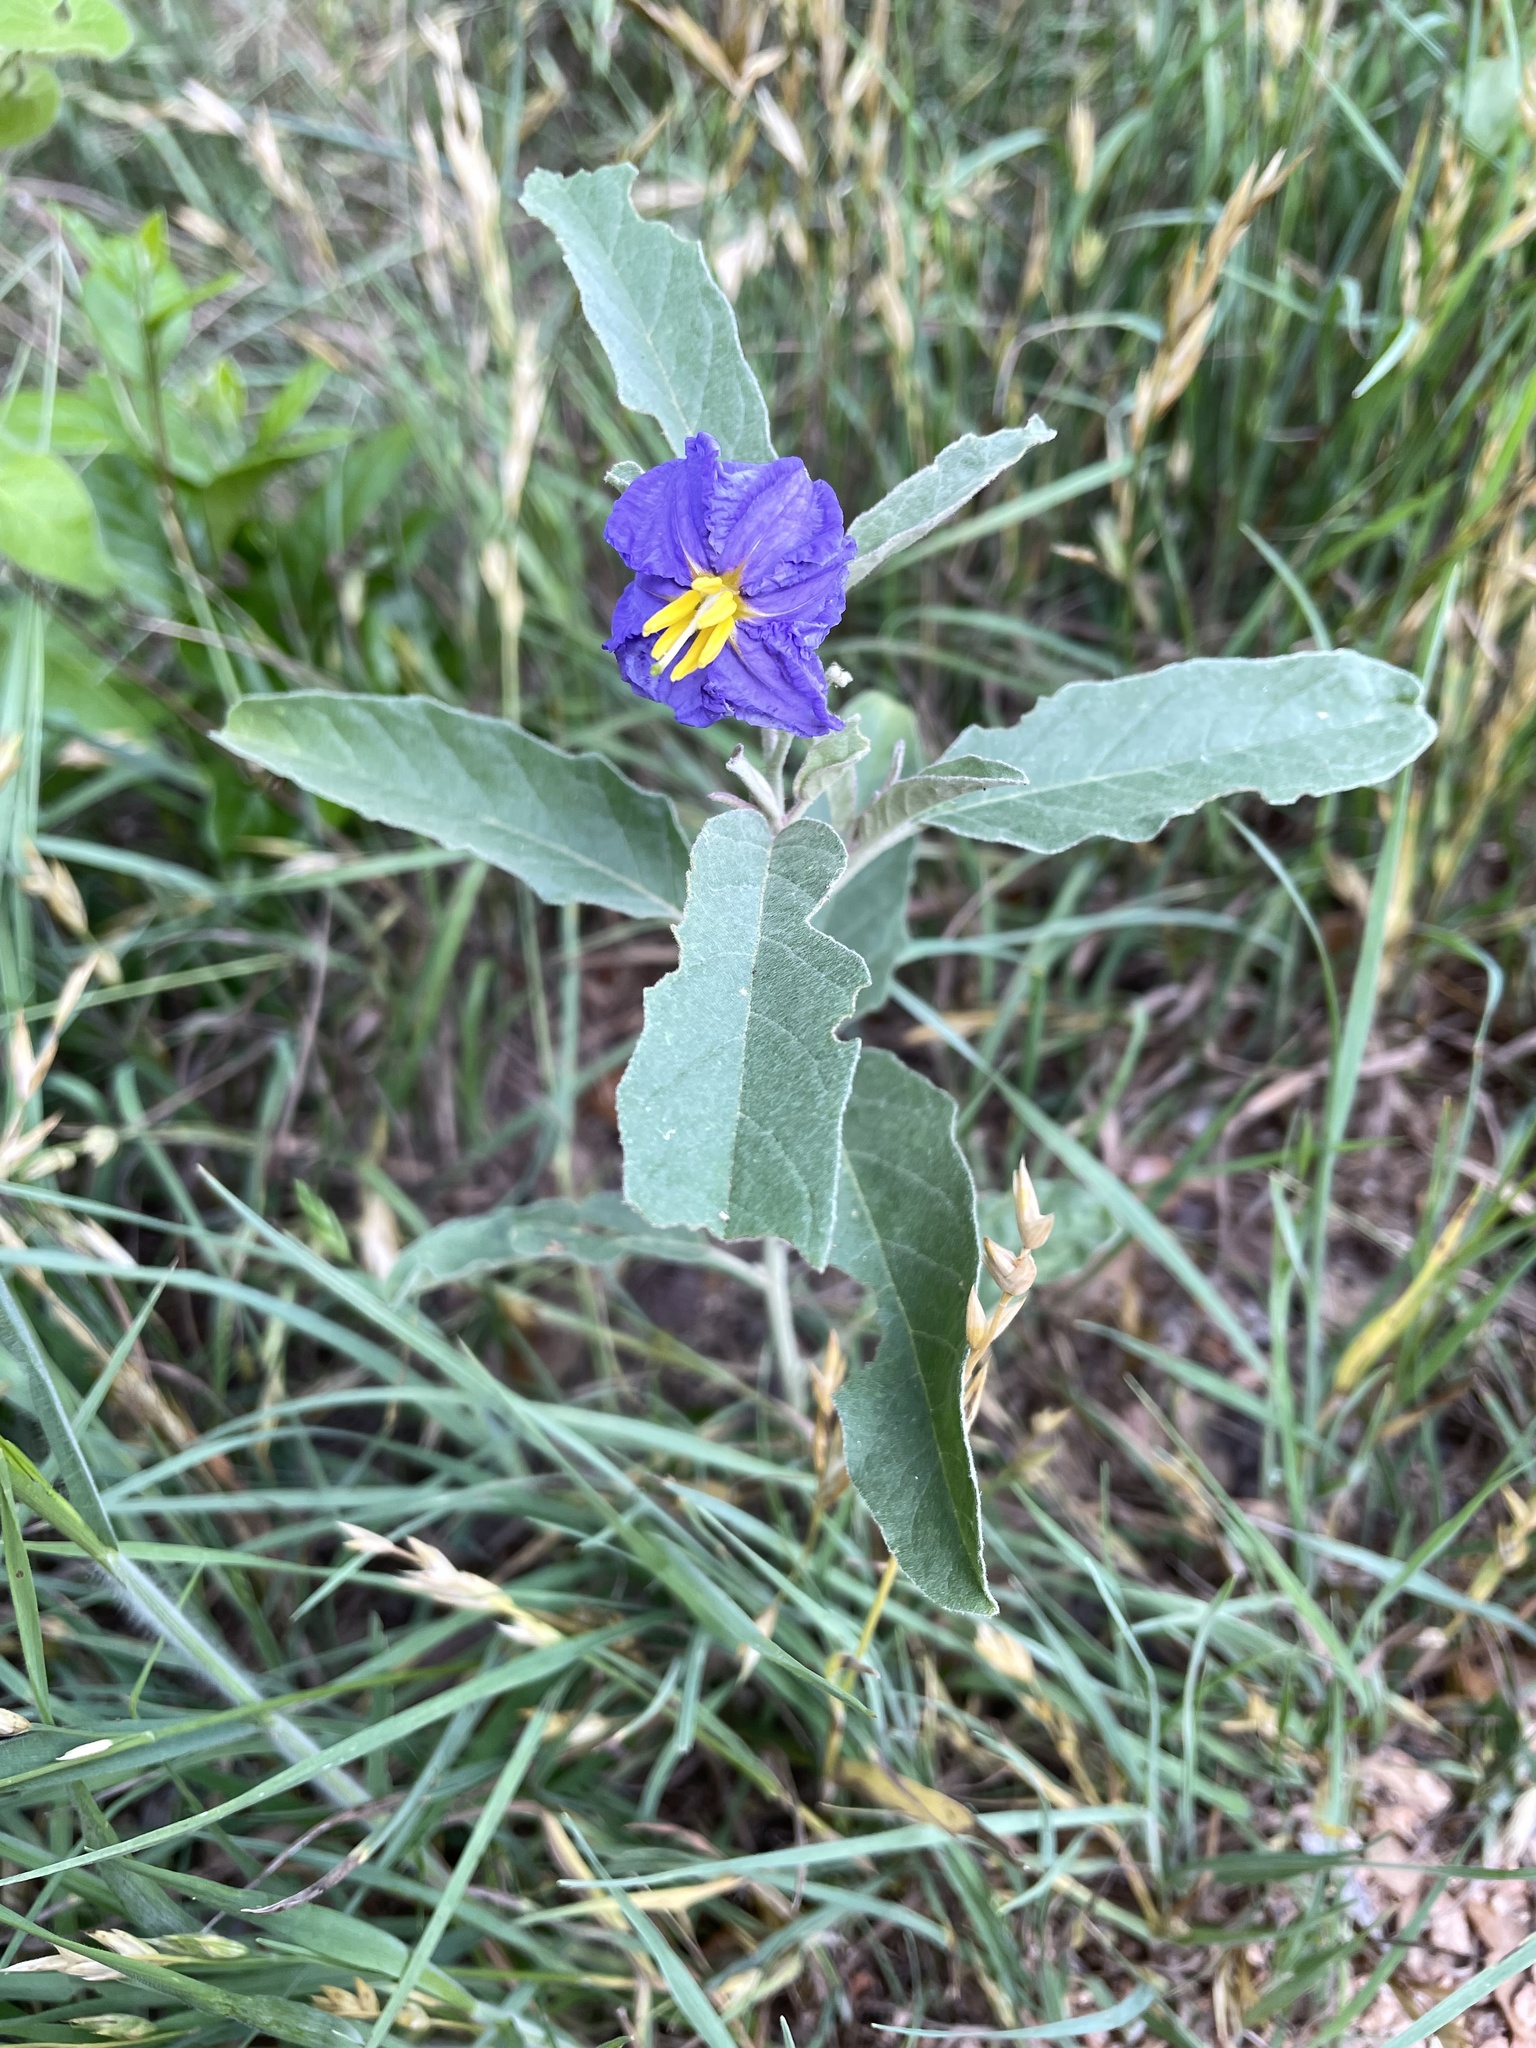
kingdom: Plantae
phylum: Tracheophyta
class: Magnoliopsida
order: Solanales
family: Solanaceae
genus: Solanum
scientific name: Solanum elaeagnifolium
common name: Silverleaf nightshade
